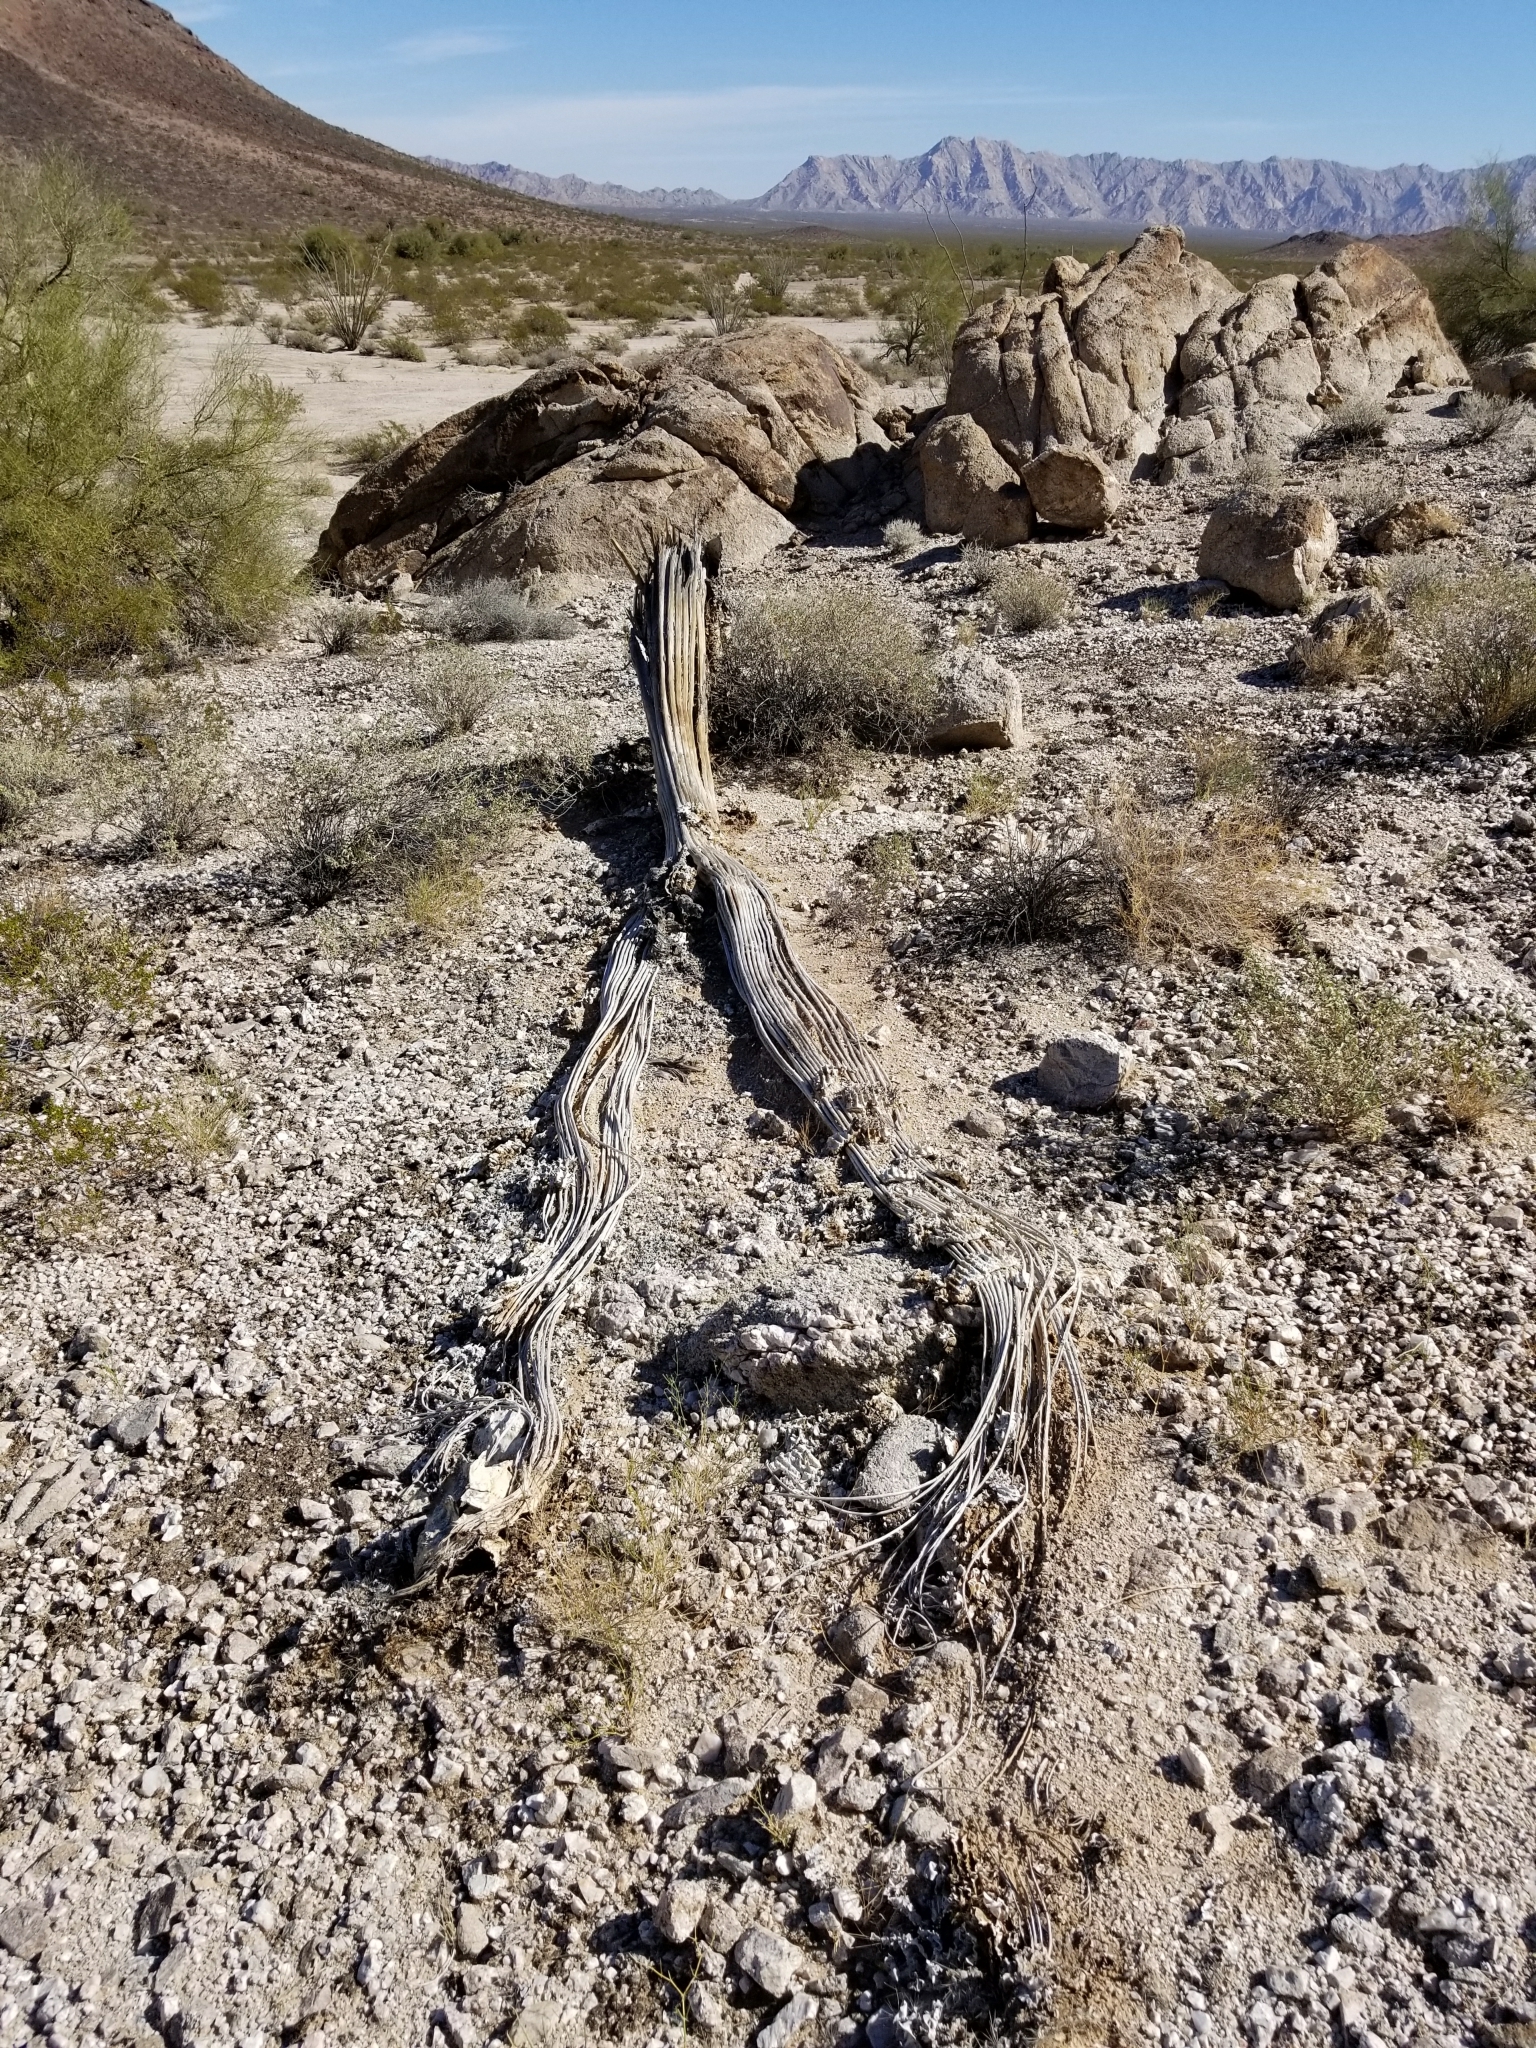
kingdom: Plantae
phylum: Tracheophyta
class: Magnoliopsida
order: Caryophyllales
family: Cactaceae
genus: Carnegiea
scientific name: Carnegiea gigantea
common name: Saguaro
